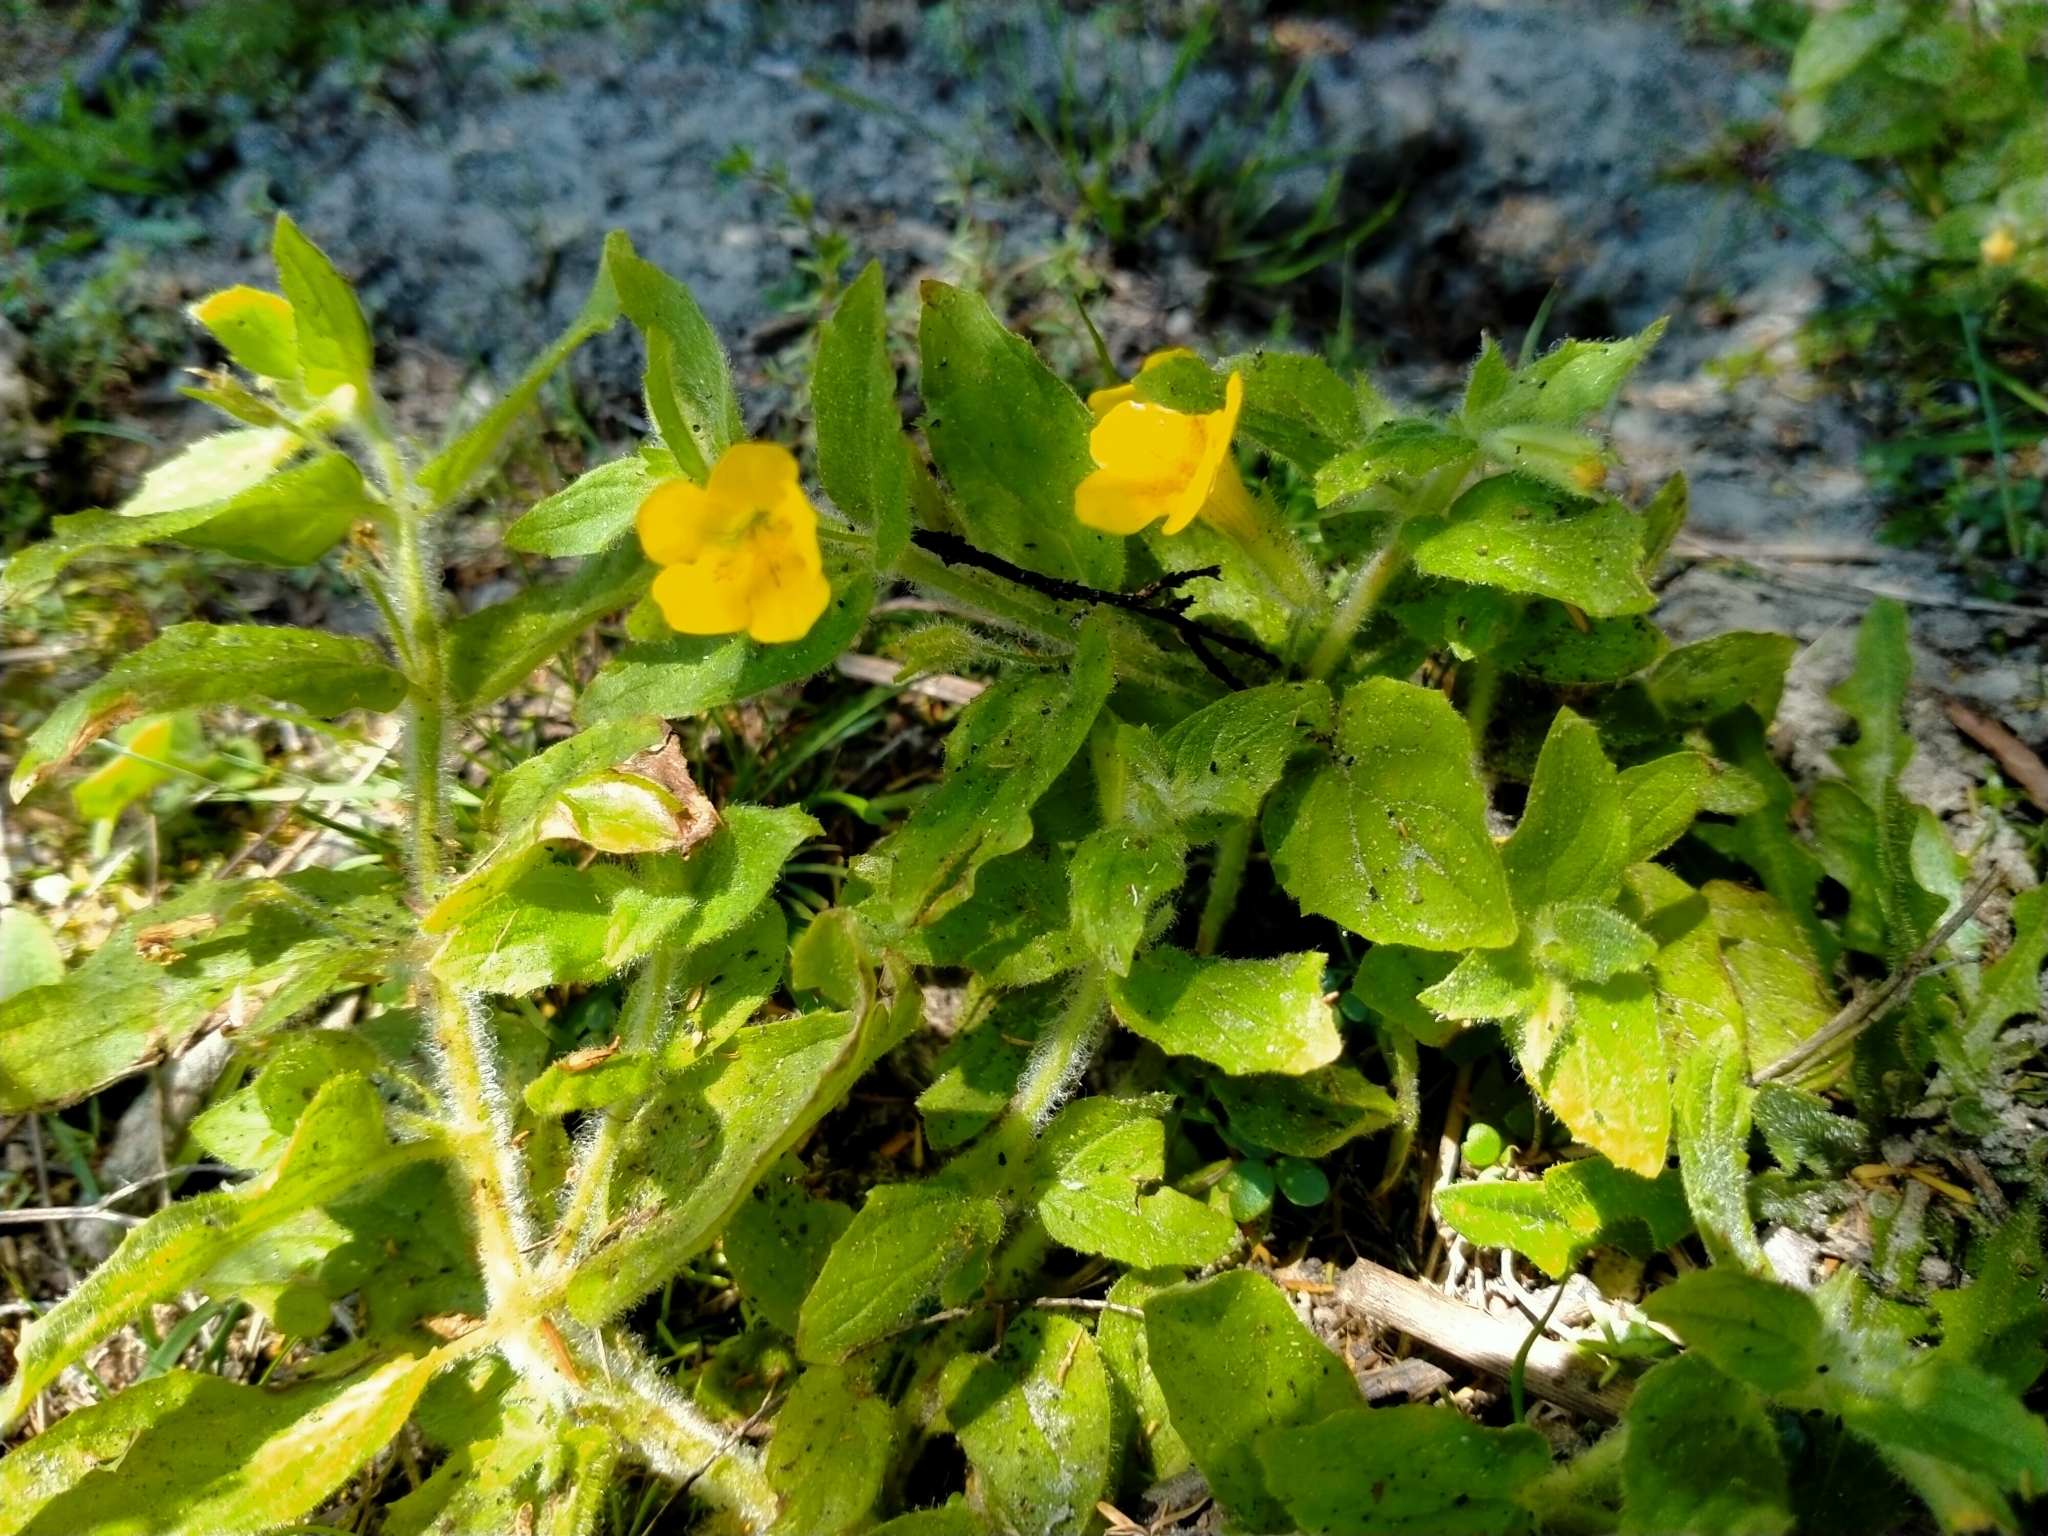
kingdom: Plantae
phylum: Tracheophyta
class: Magnoliopsida
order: Lamiales
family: Phrymaceae
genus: Erythranthe
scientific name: Erythranthe moschata
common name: Muskflower
